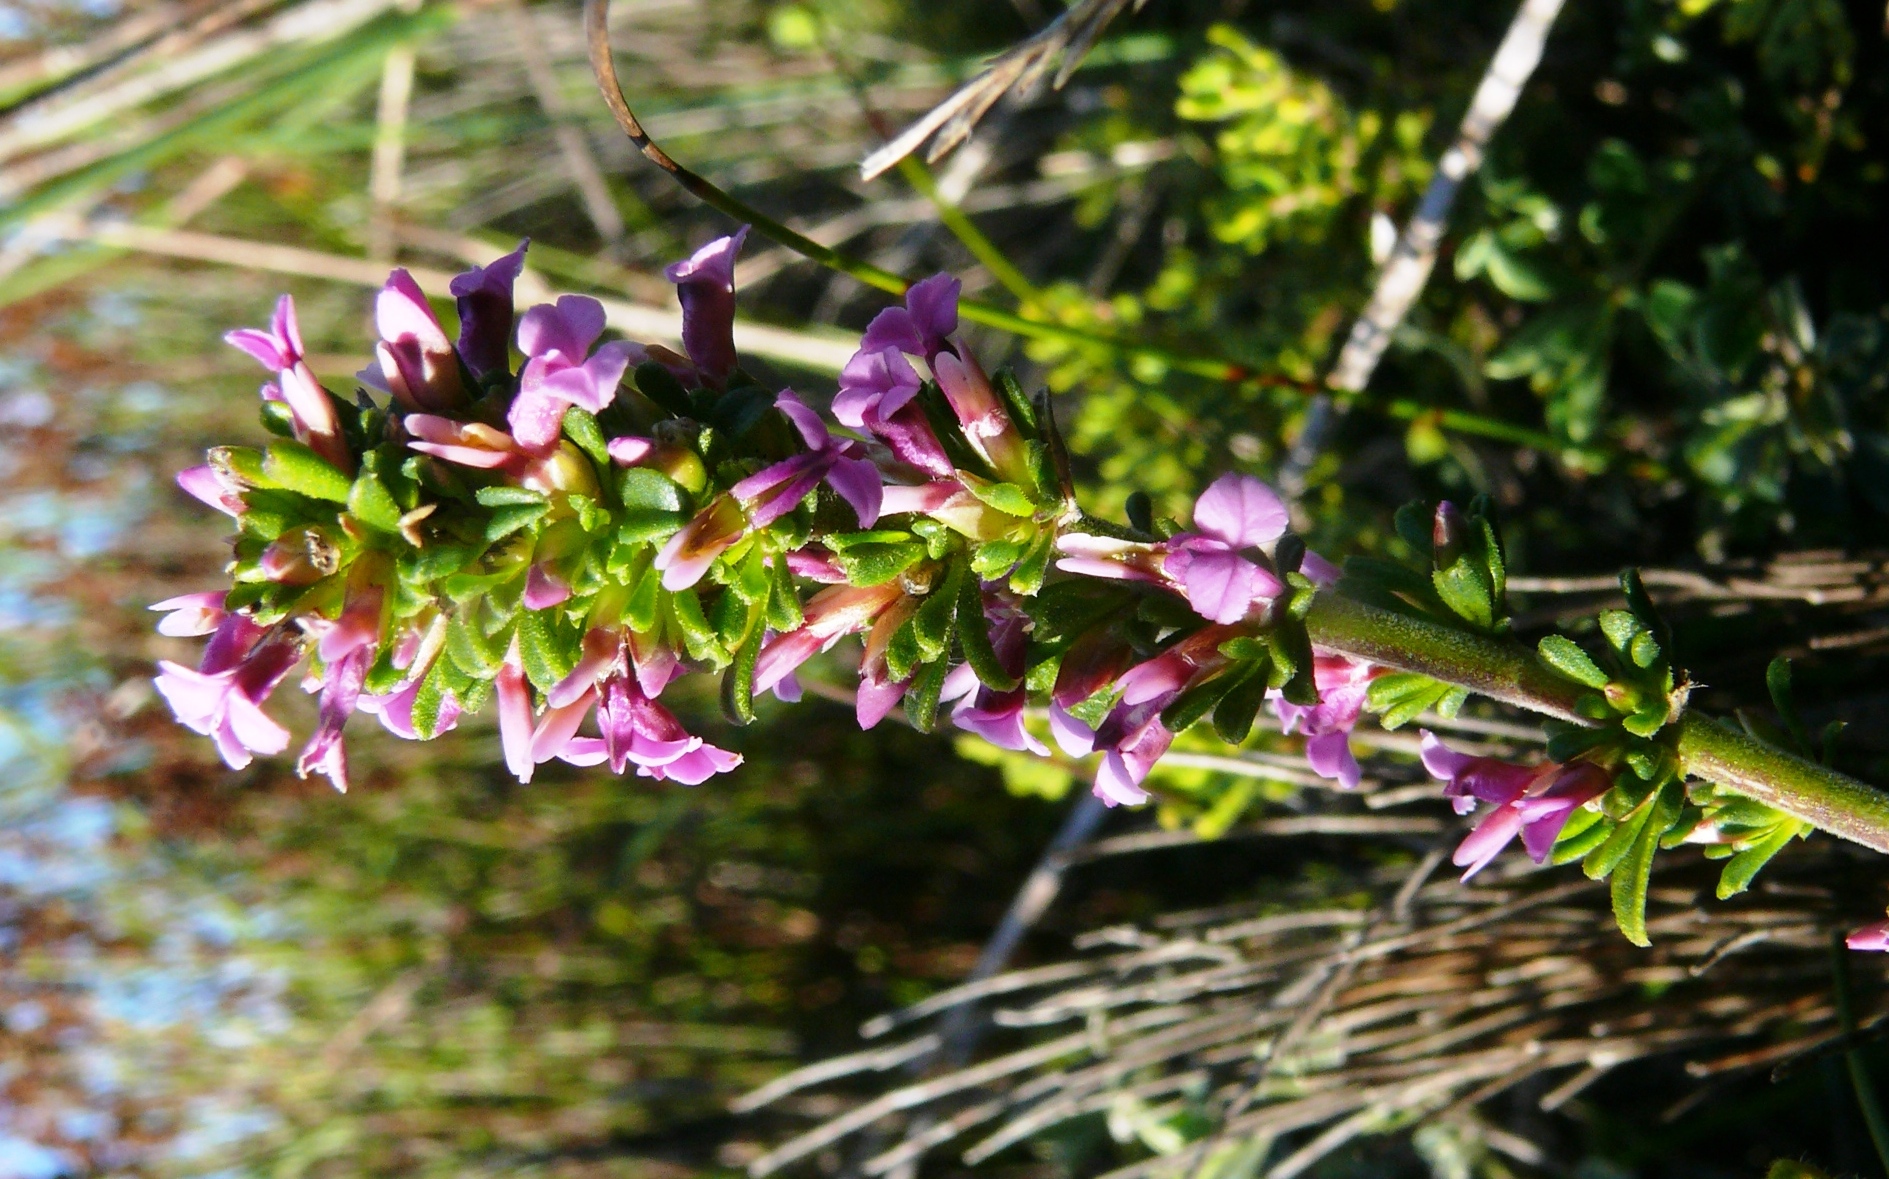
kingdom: Plantae
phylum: Tracheophyta
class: Magnoliopsida
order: Fabales
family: Polygalaceae
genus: Muraltia
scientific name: Muraltia barkerae
